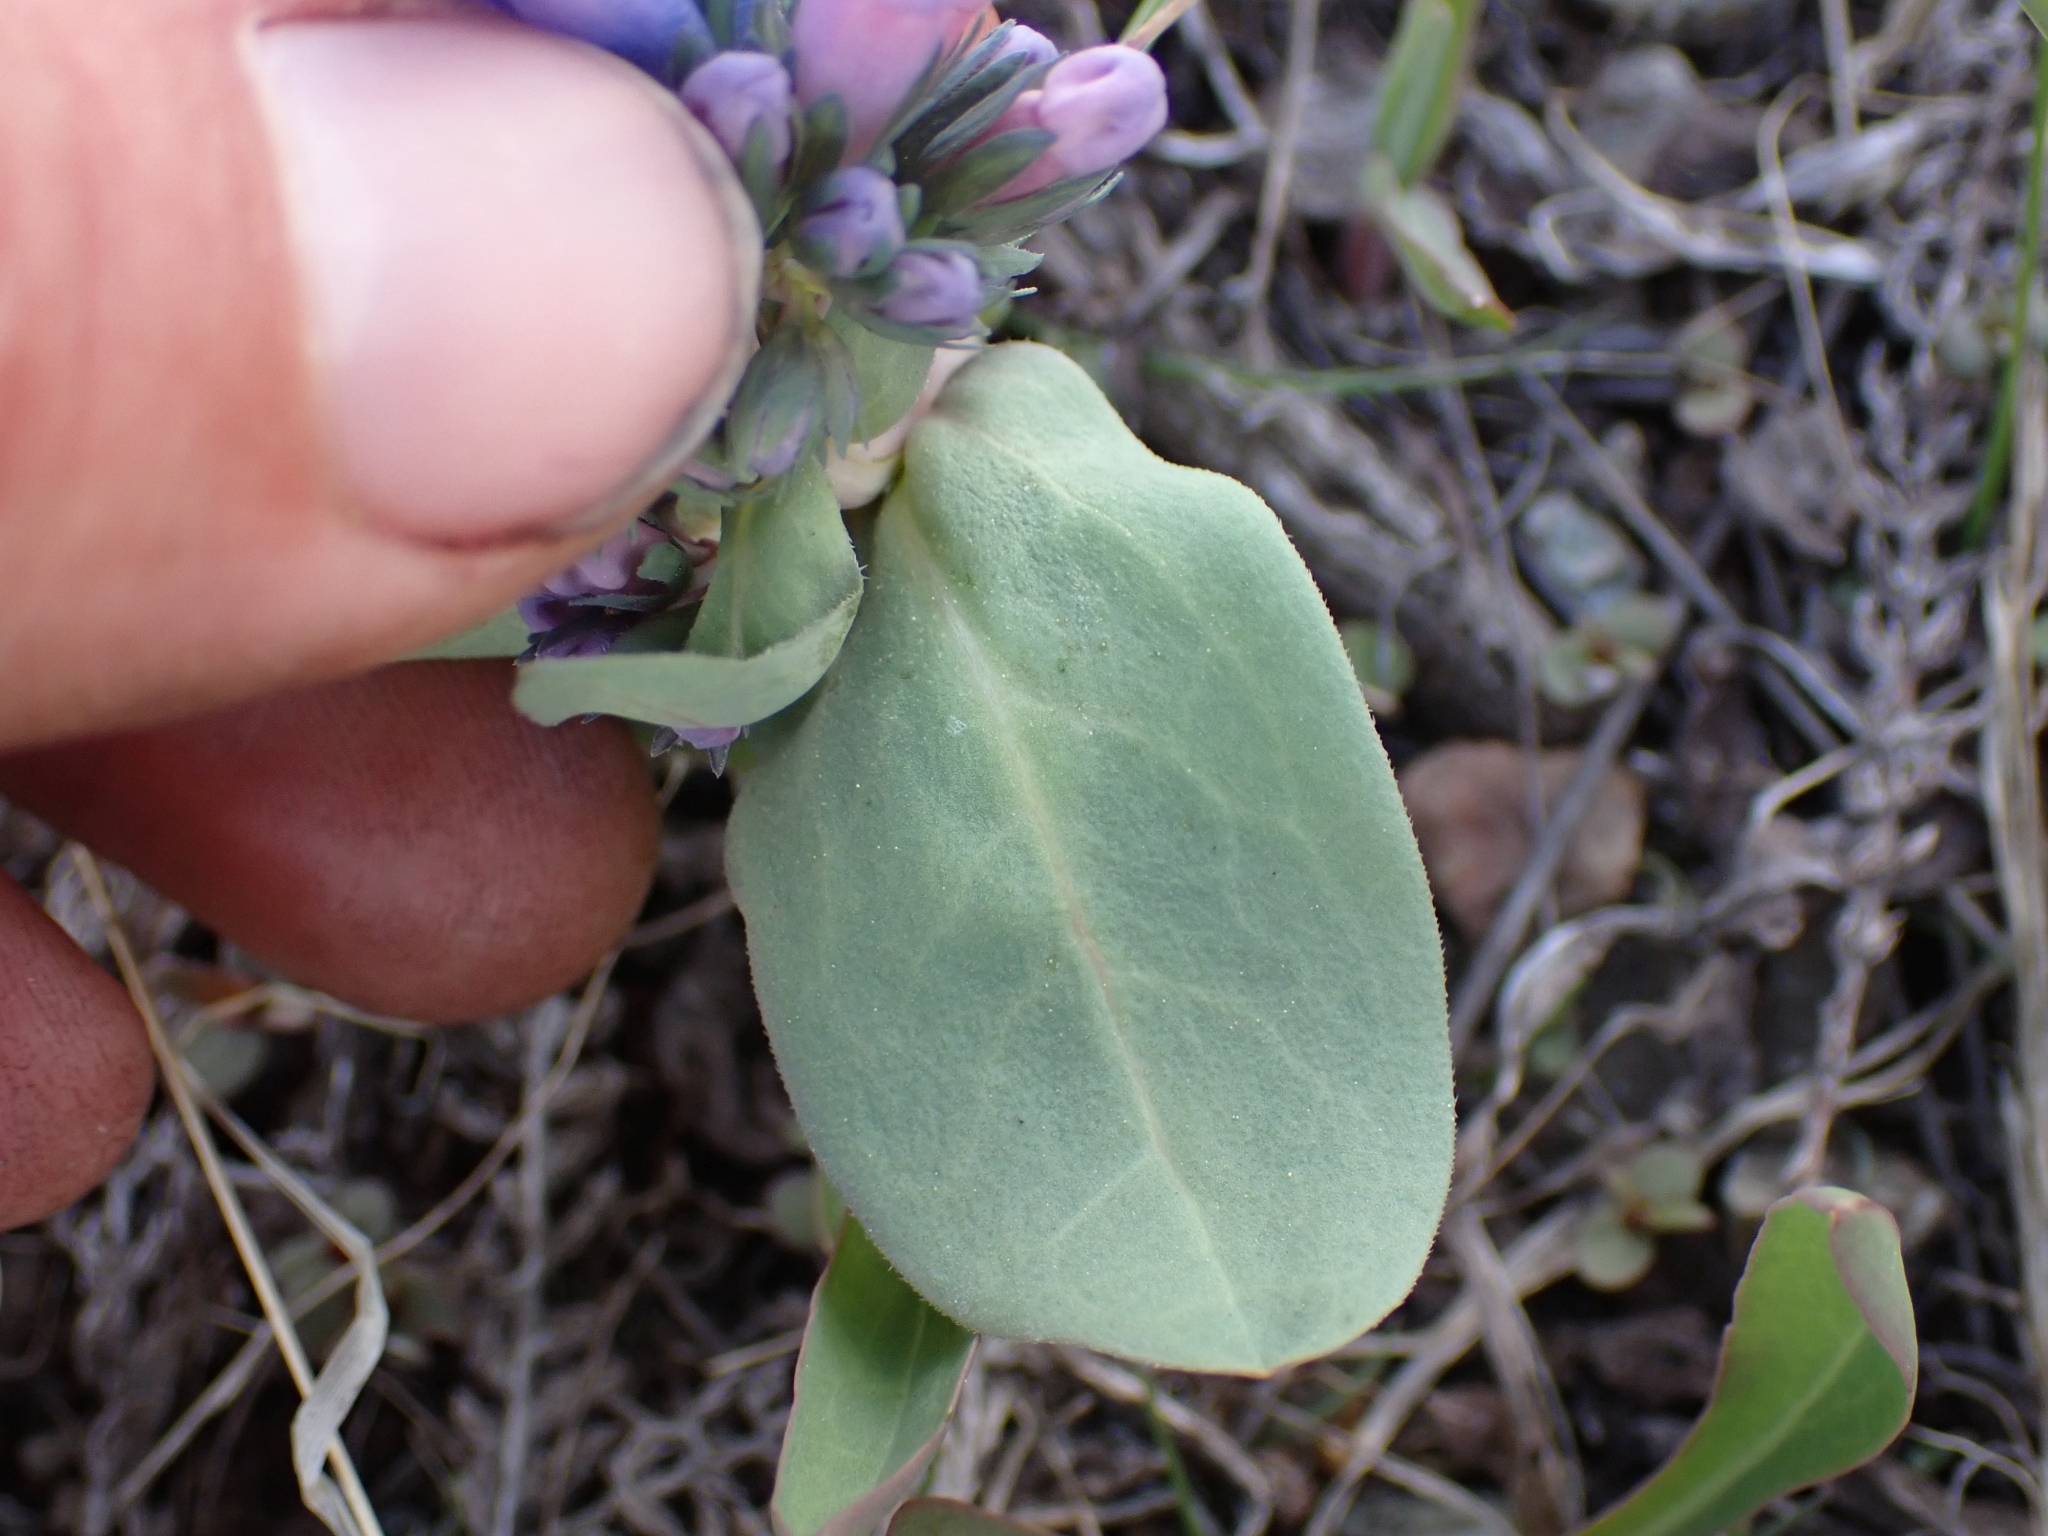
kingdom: Plantae
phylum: Tracheophyta
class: Magnoliopsida
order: Boraginales
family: Boraginaceae
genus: Mertensia
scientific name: Mertensia longiflora
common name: Large-flowered bluebells
